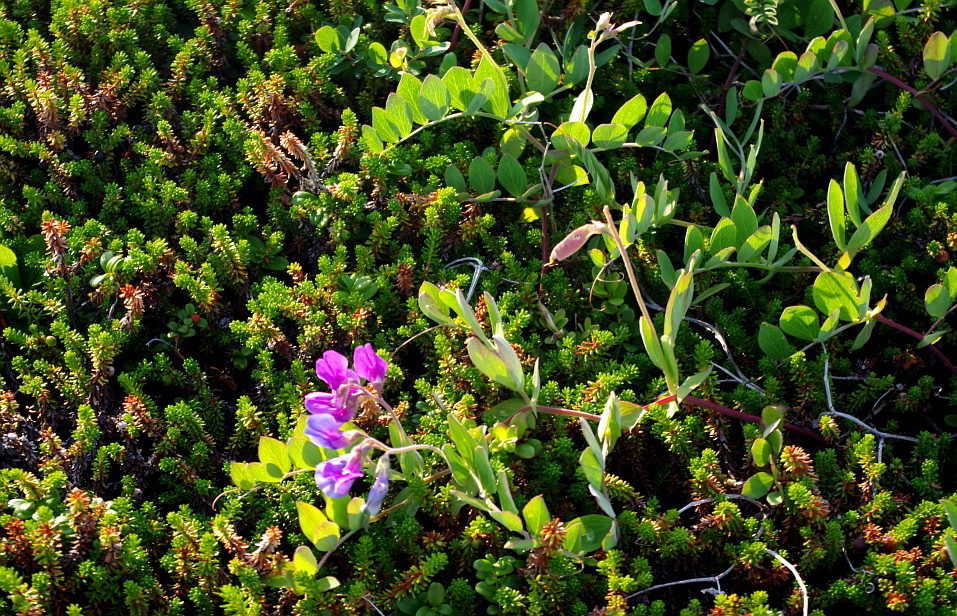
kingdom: Plantae
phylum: Tracheophyta
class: Magnoliopsida
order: Fabales
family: Fabaceae
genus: Lathyrus
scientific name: Lathyrus japonicus
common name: Sea pea
